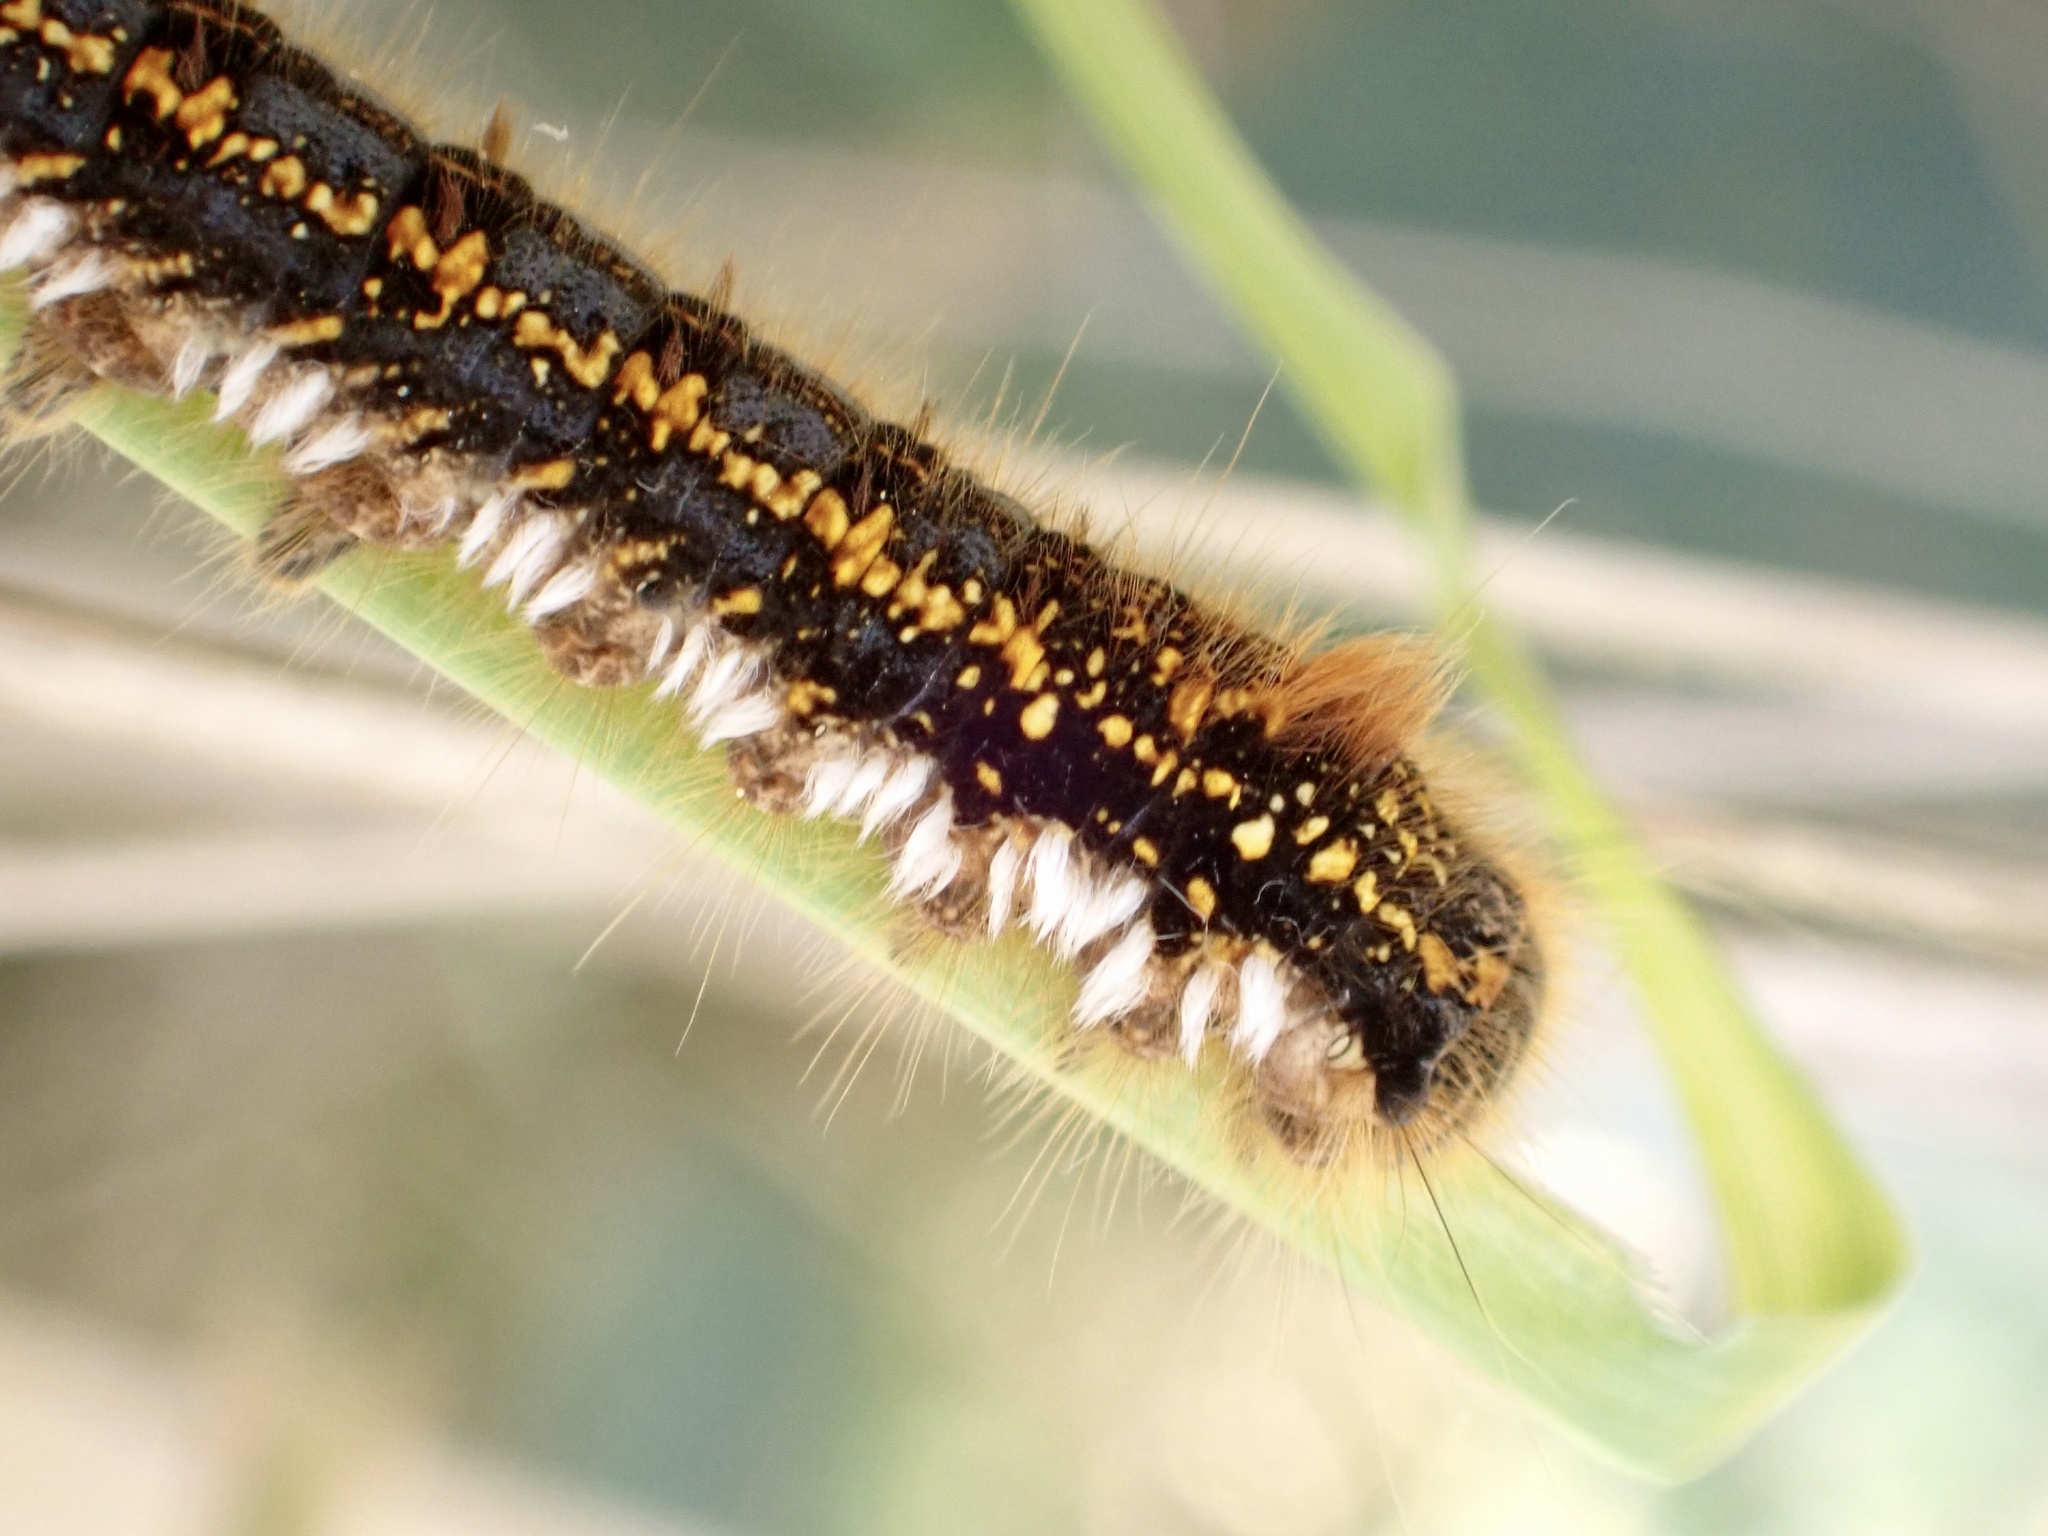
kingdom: Animalia
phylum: Arthropoda
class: Insecta
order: Lepidoptera
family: Lasiocampidae
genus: Euthrix
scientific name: Euthrix potatoria
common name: Drinker
